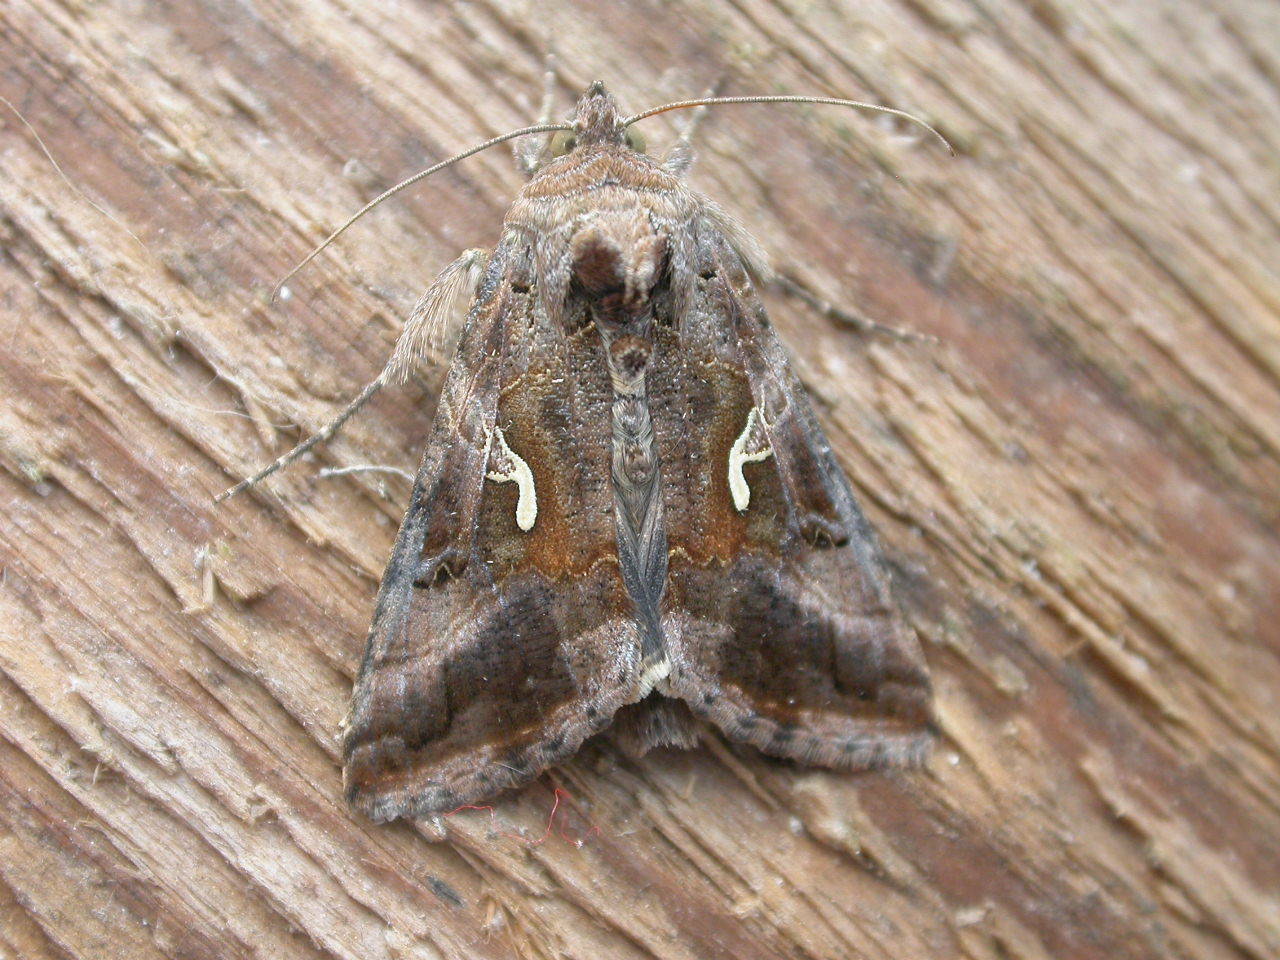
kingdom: Animalia
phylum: Arthropoda
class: Insecta
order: Lepidoptera
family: Noctuidae
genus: Autographa
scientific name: Autographa gamma
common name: Silver y
